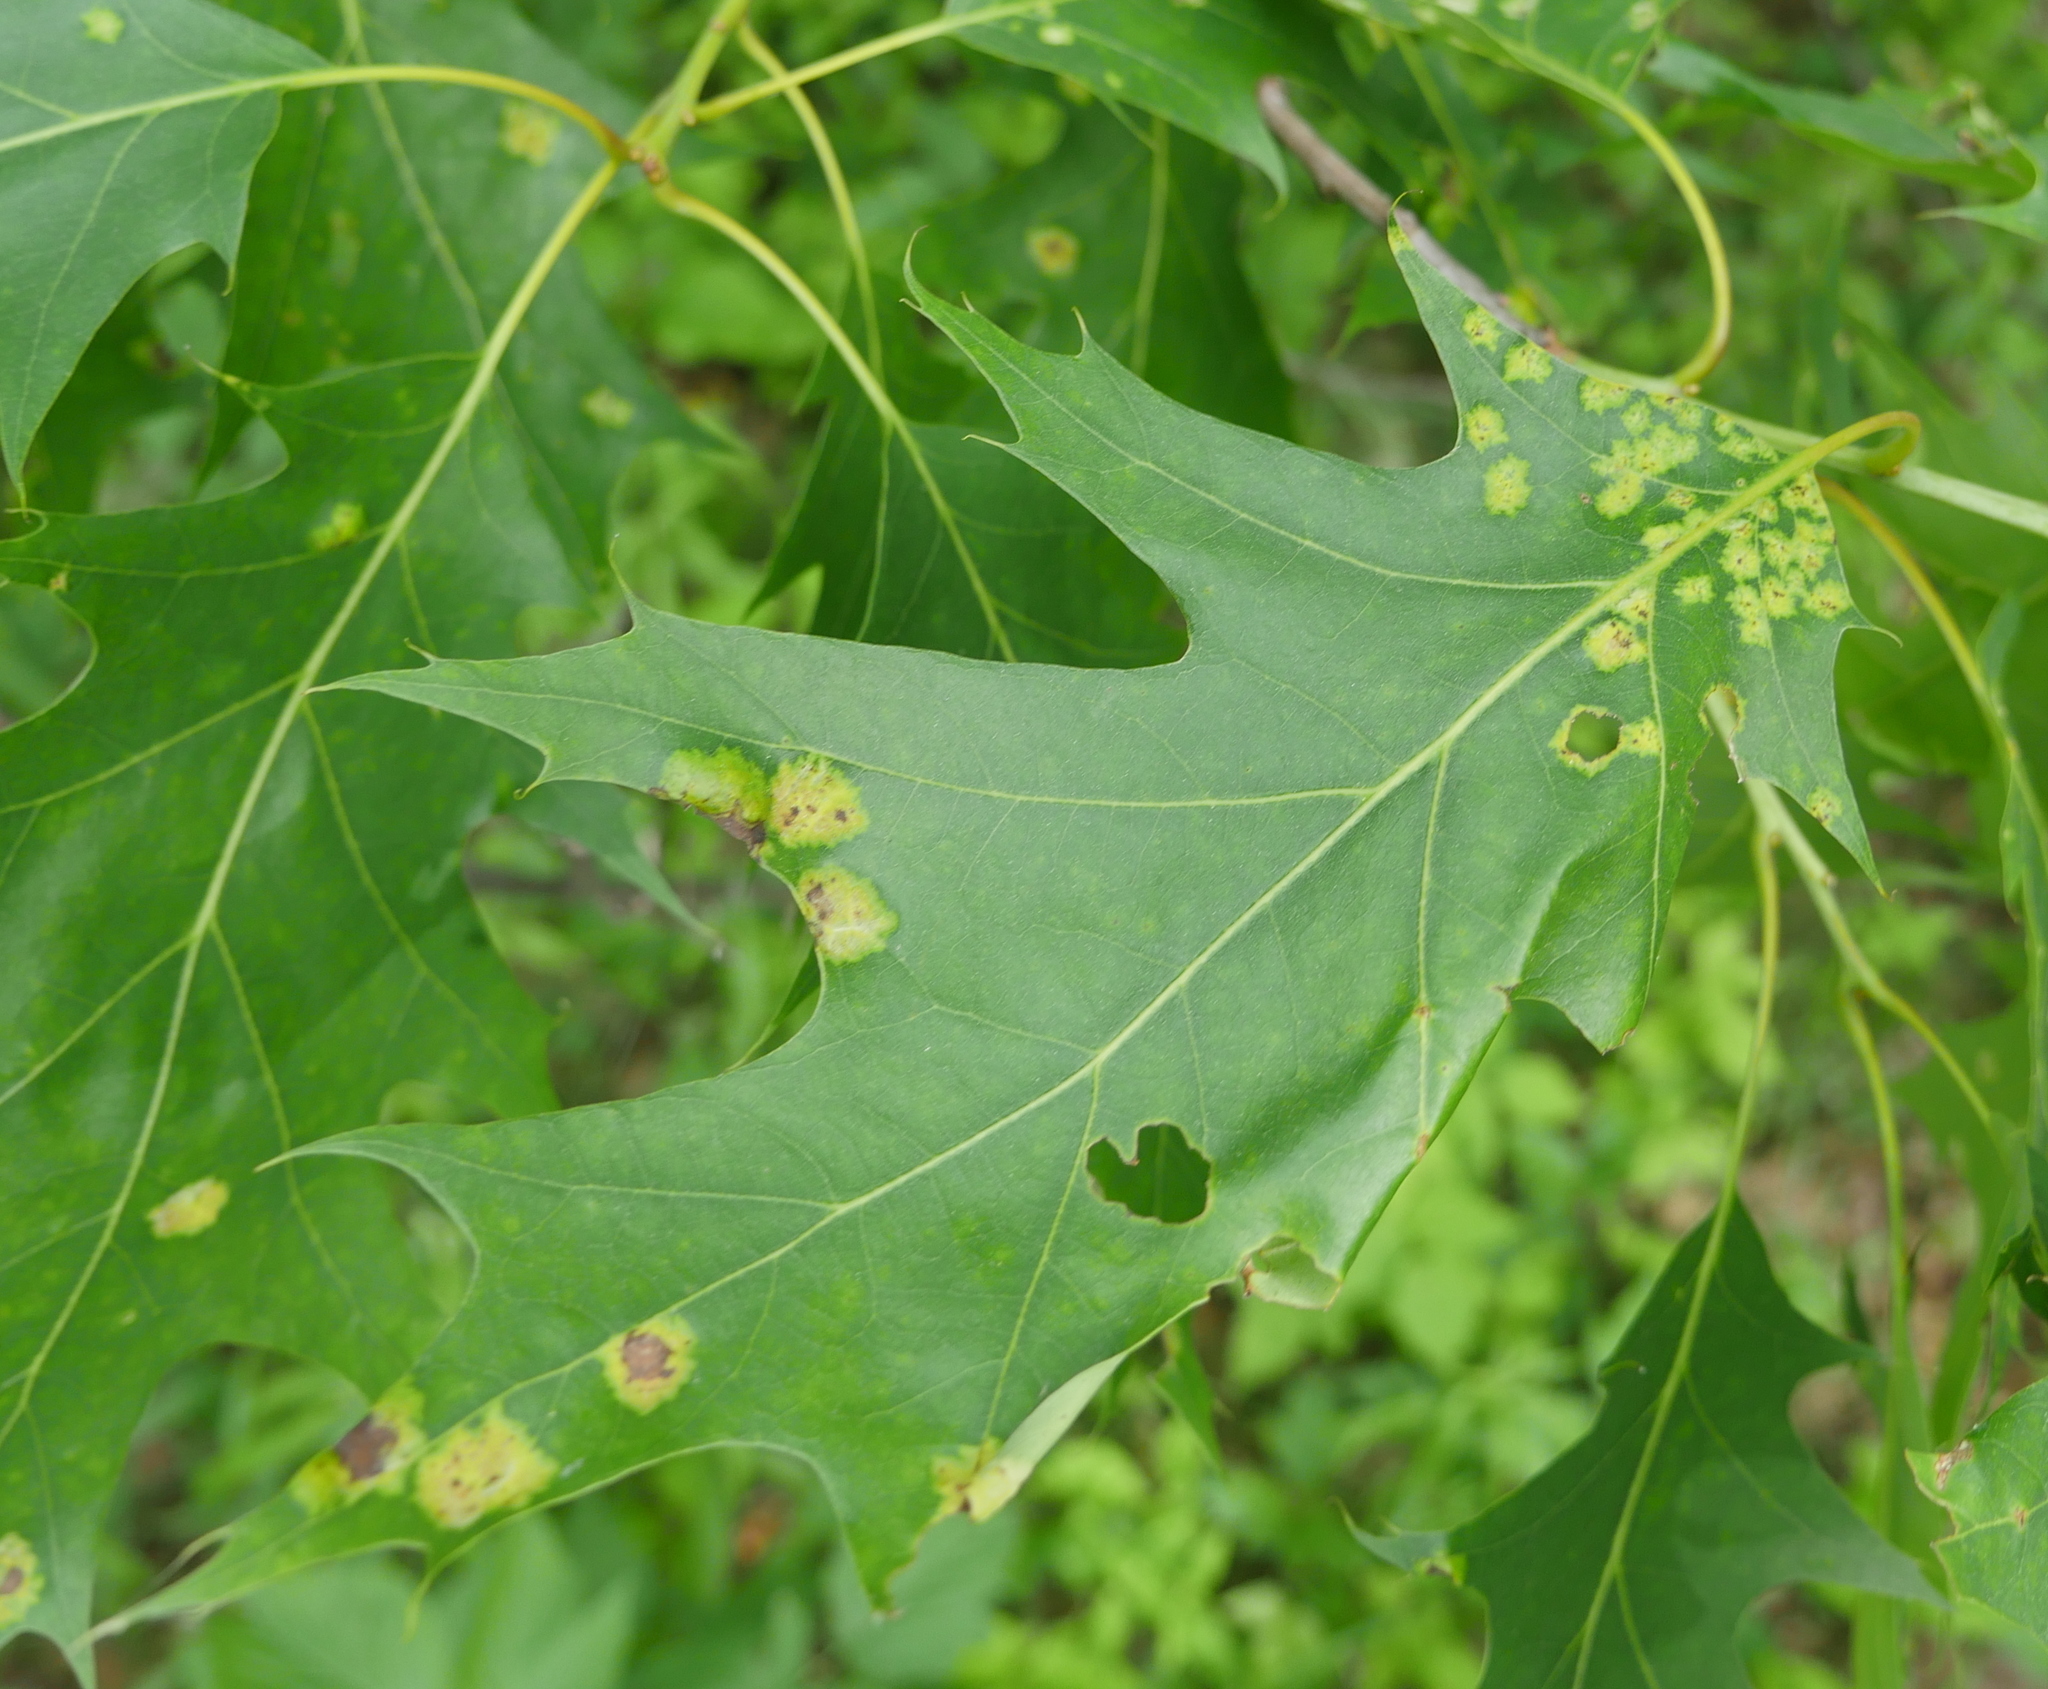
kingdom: Plantae
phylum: Tracheophyta
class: Magnoliopsida
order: Fagales
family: Fagaceae
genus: Quercus
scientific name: Quercus rubra
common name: Red oak
